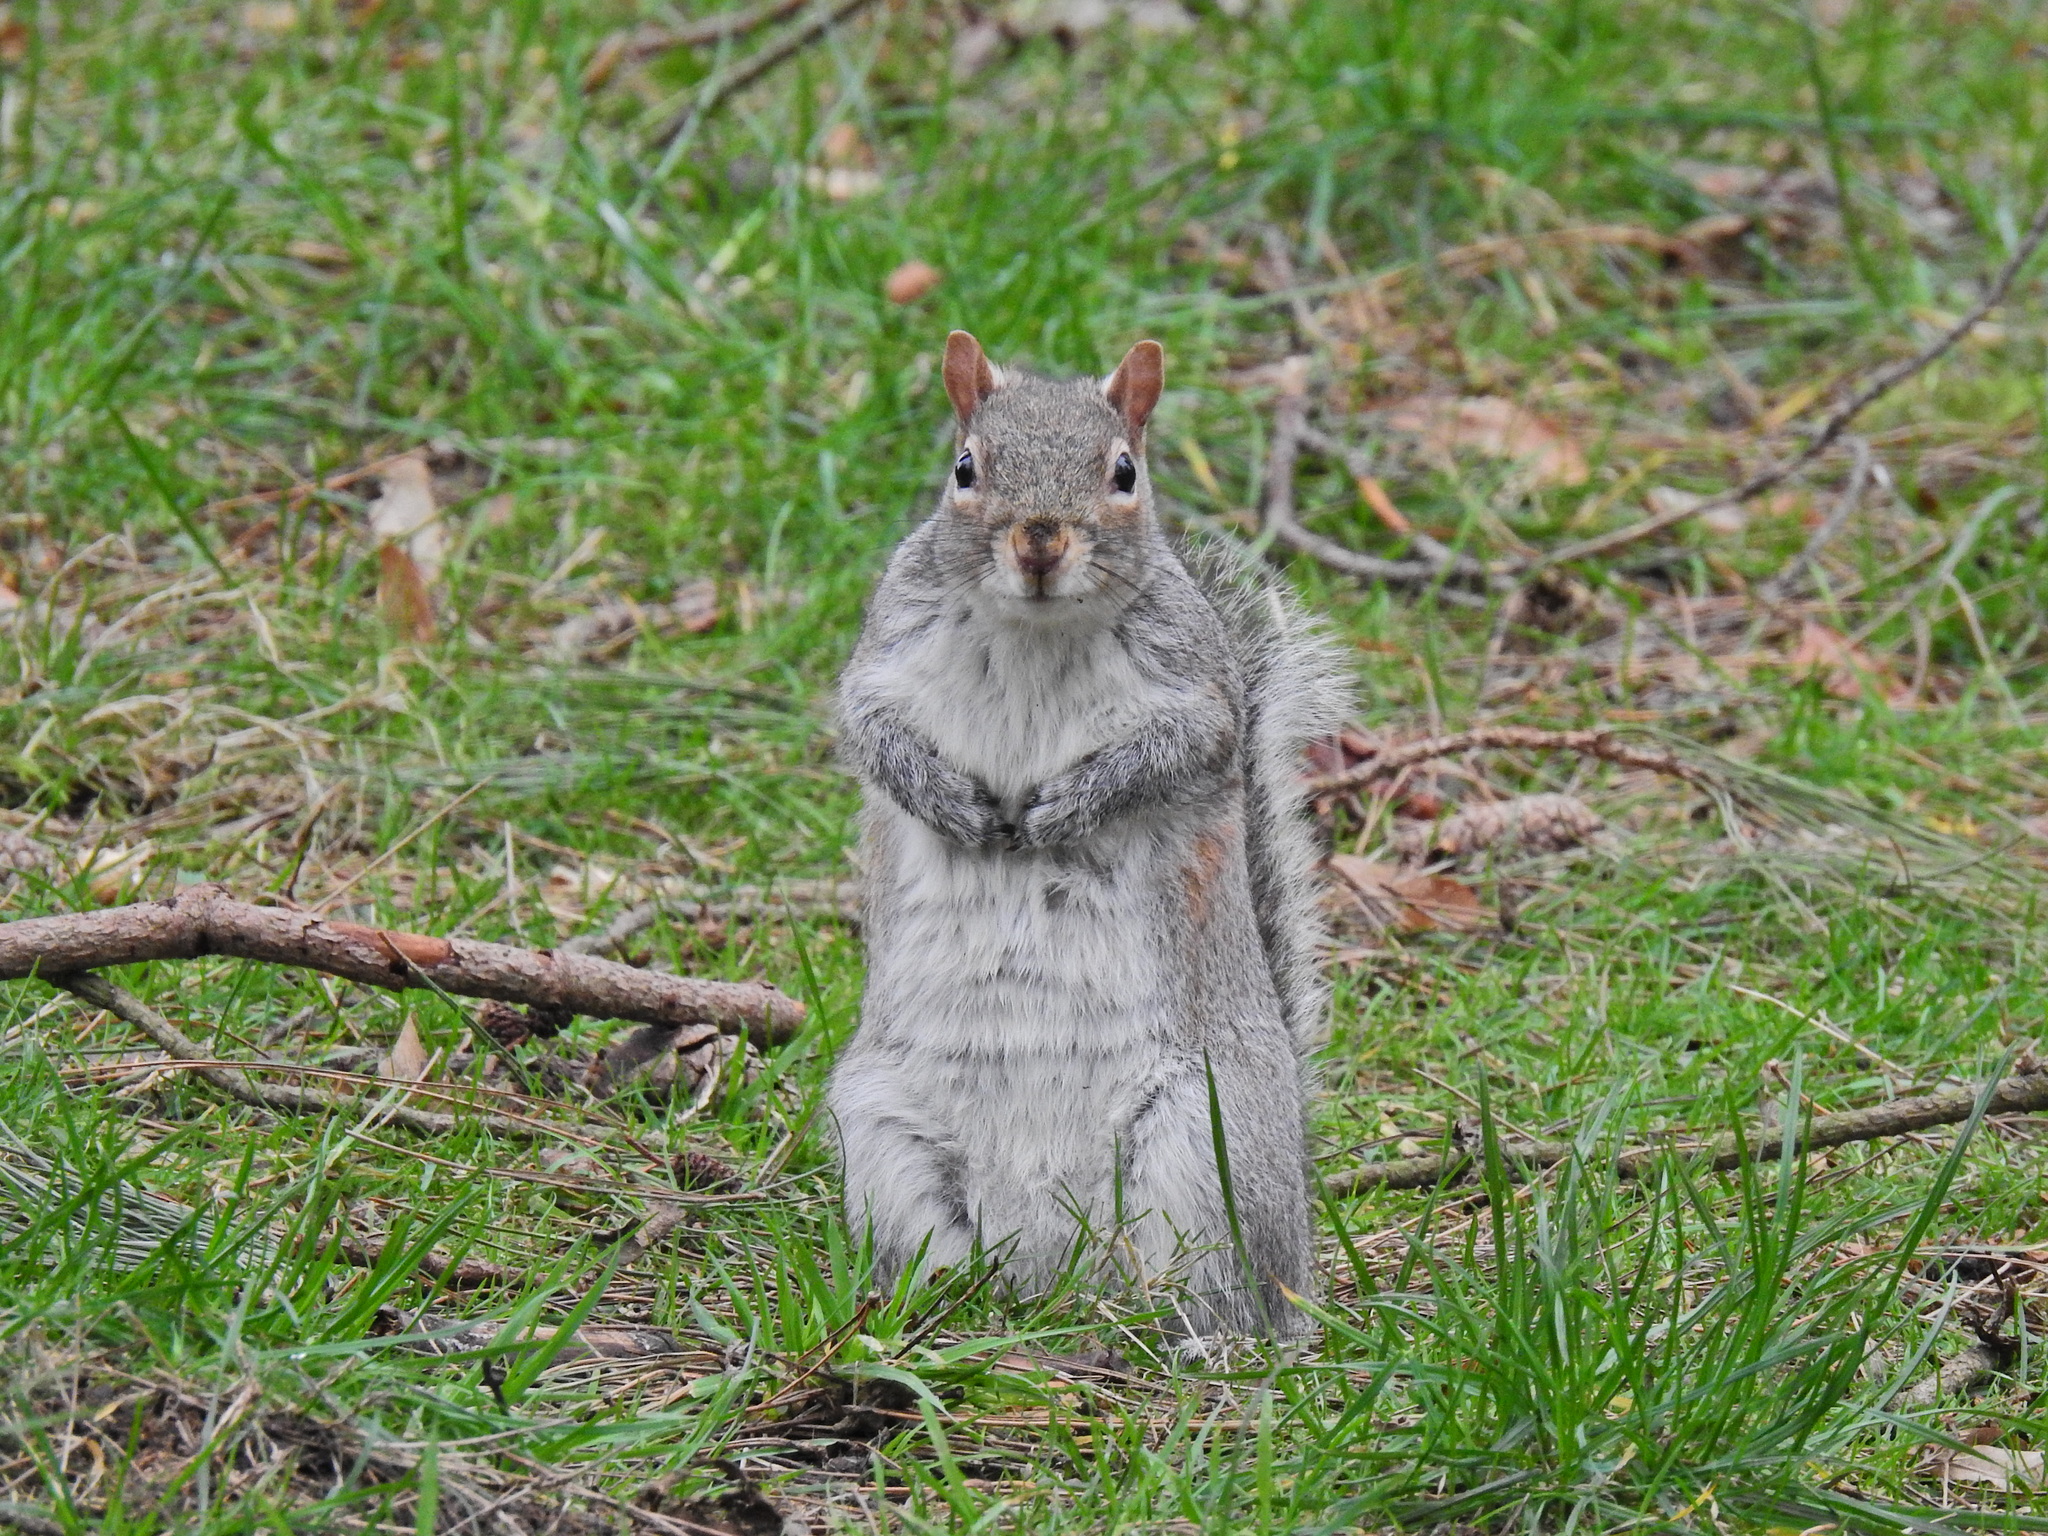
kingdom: Animalia
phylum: Chordata
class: Mammalia
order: Rodentia
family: Sciuridae
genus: Sciurus
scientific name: Sciurus carolinensis
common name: Eastern gray squirrel
